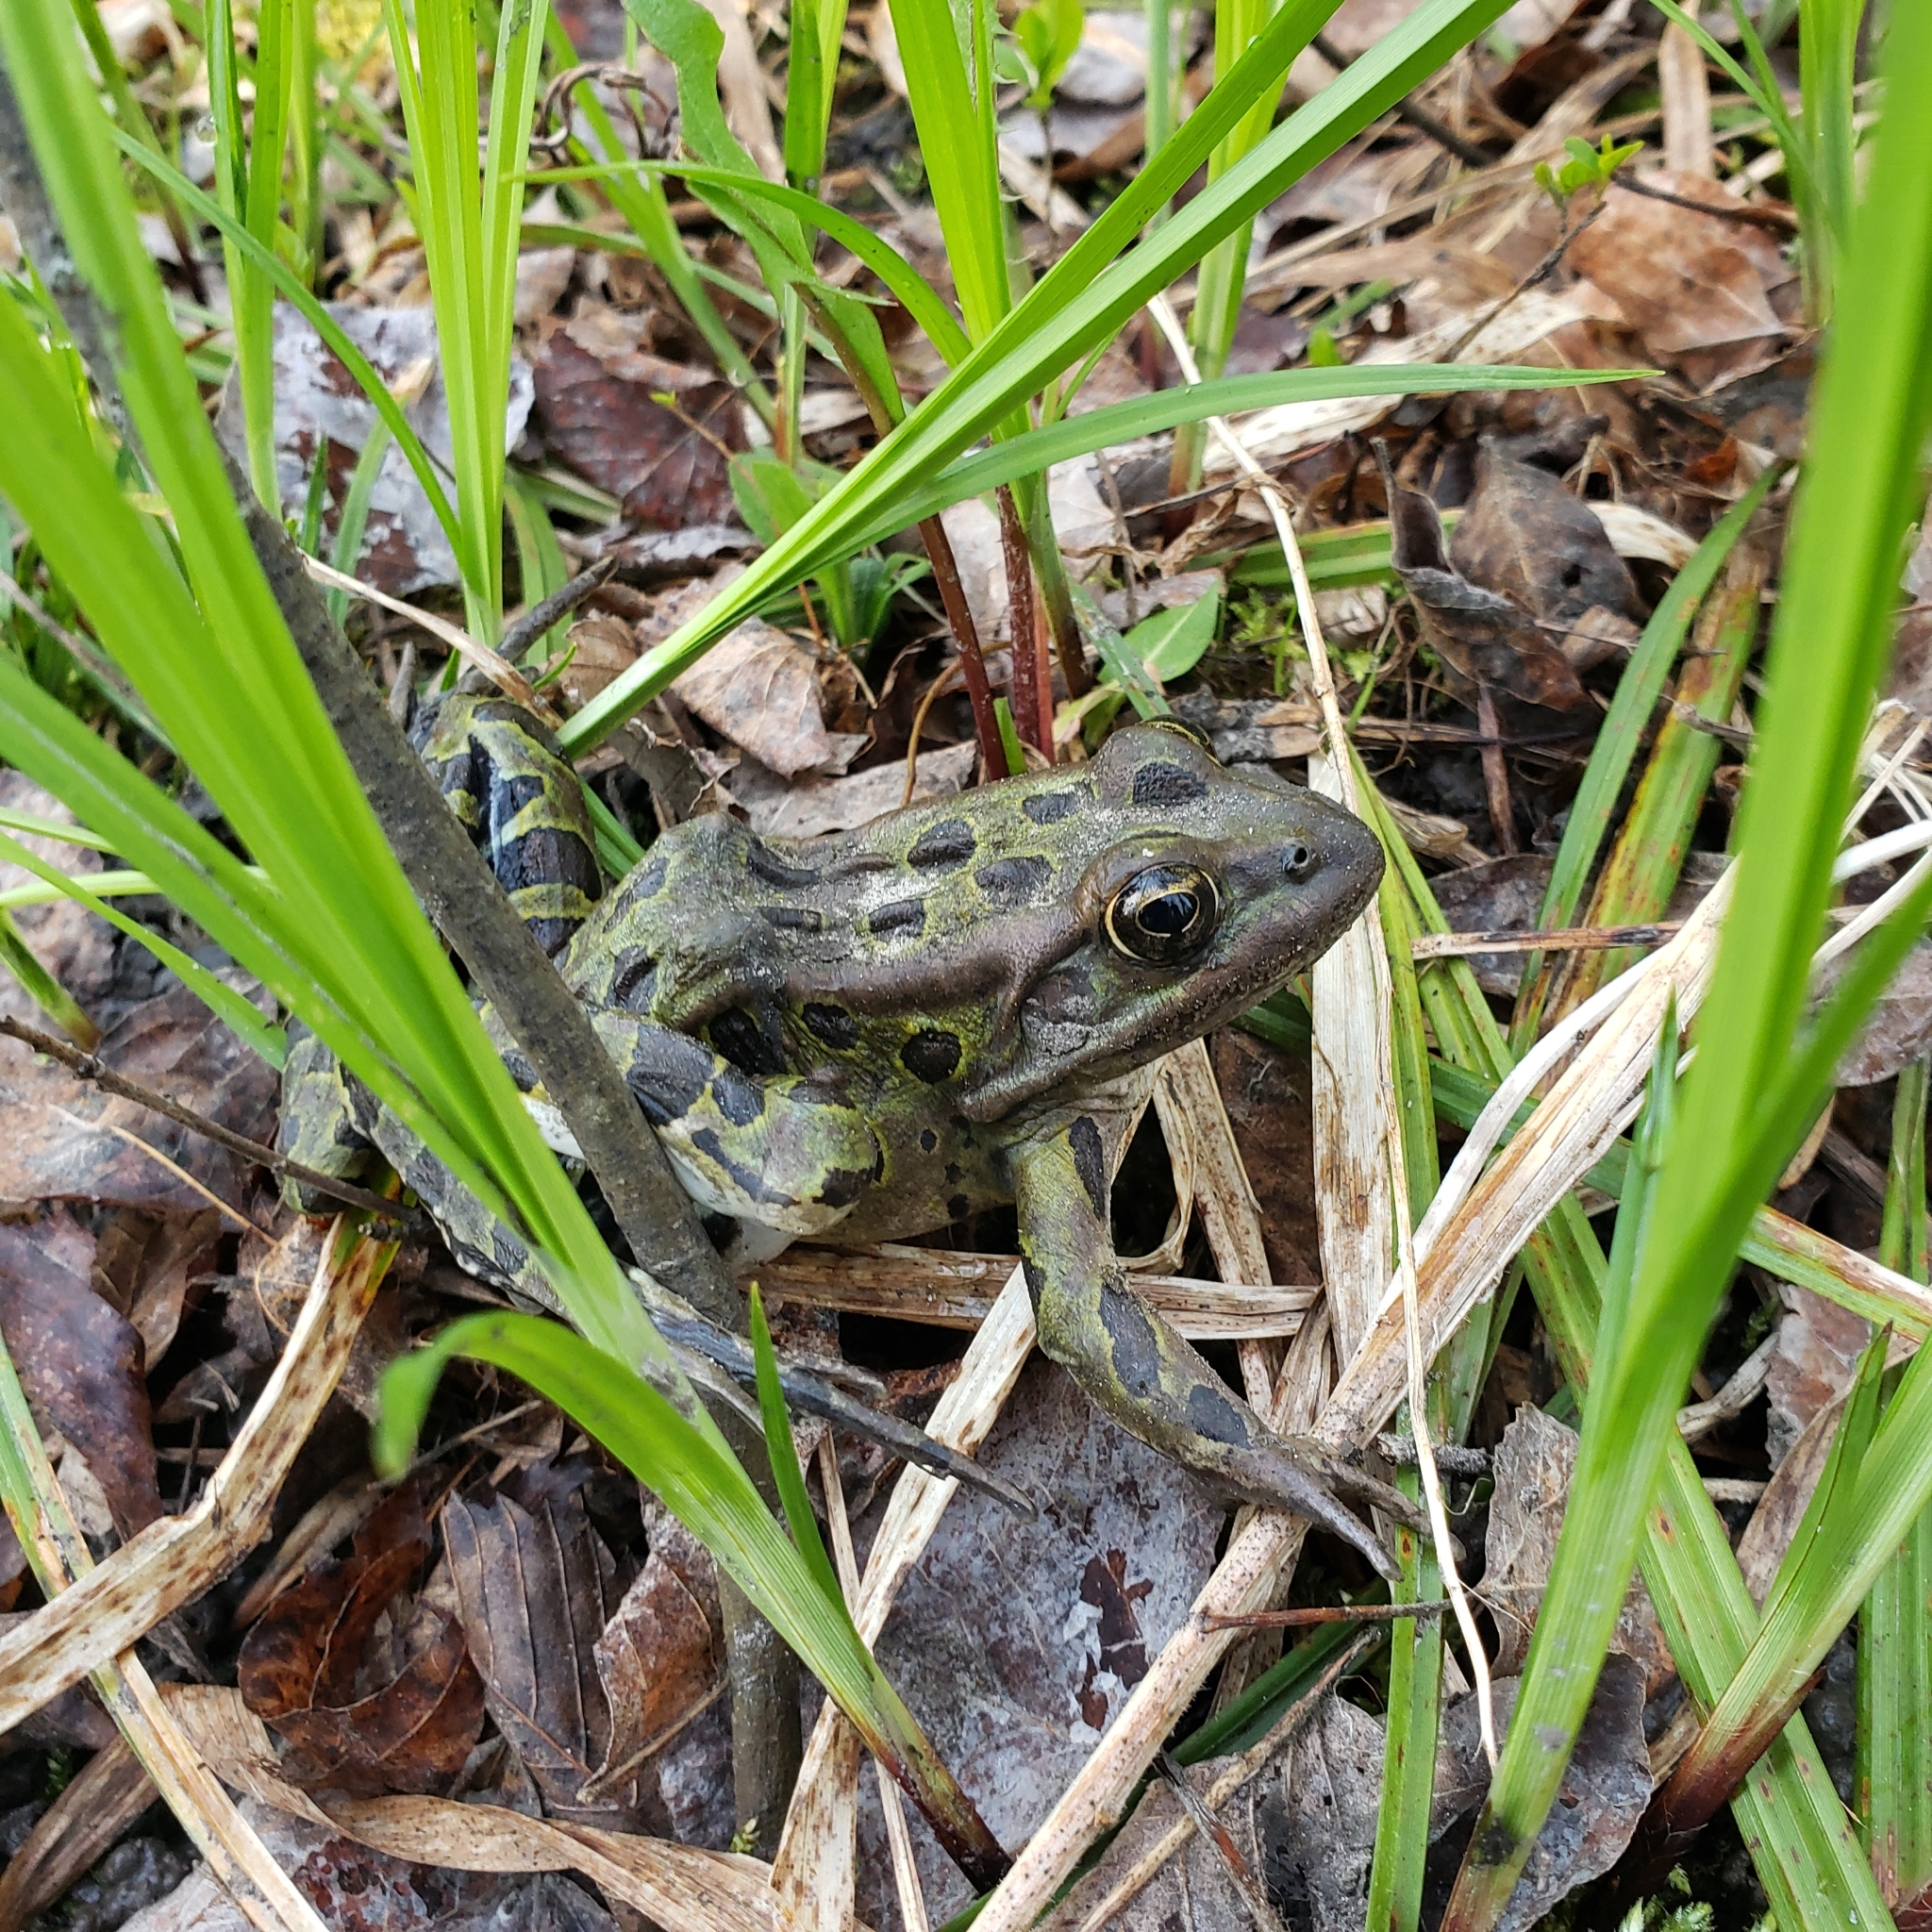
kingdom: Animalia
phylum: Chordata
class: Amphibia
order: Anura
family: Ranidae
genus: Lithobates
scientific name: Lithobates pipiens
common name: Northern leopard frog
